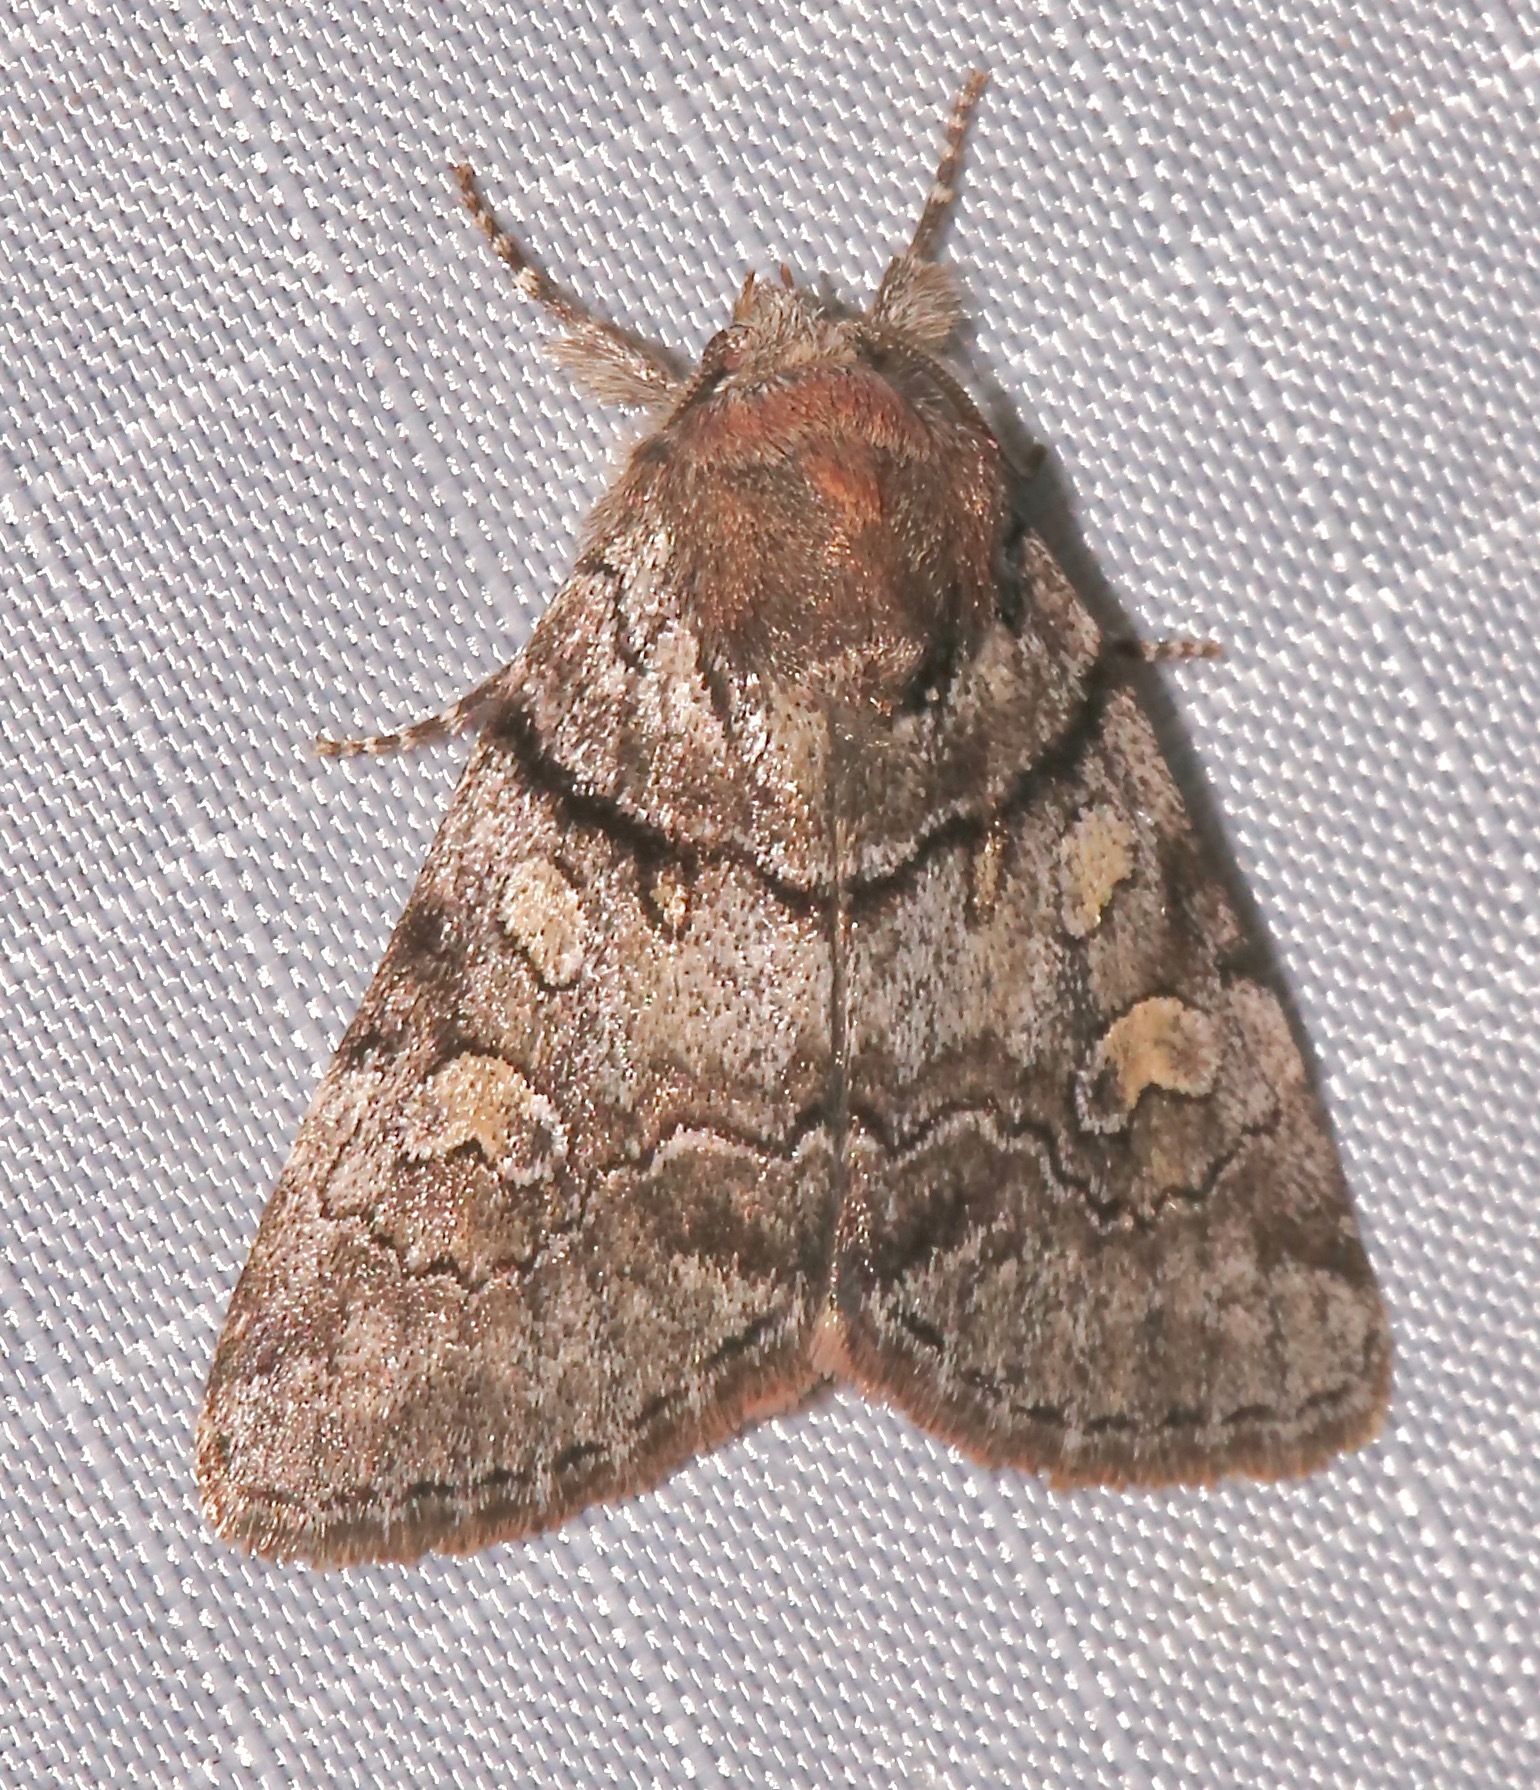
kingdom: Animalia
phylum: Arthropoda
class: Insecta
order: Lepidoptera
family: Noctuidae
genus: Cosmia
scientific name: Cosmia praeacuta
